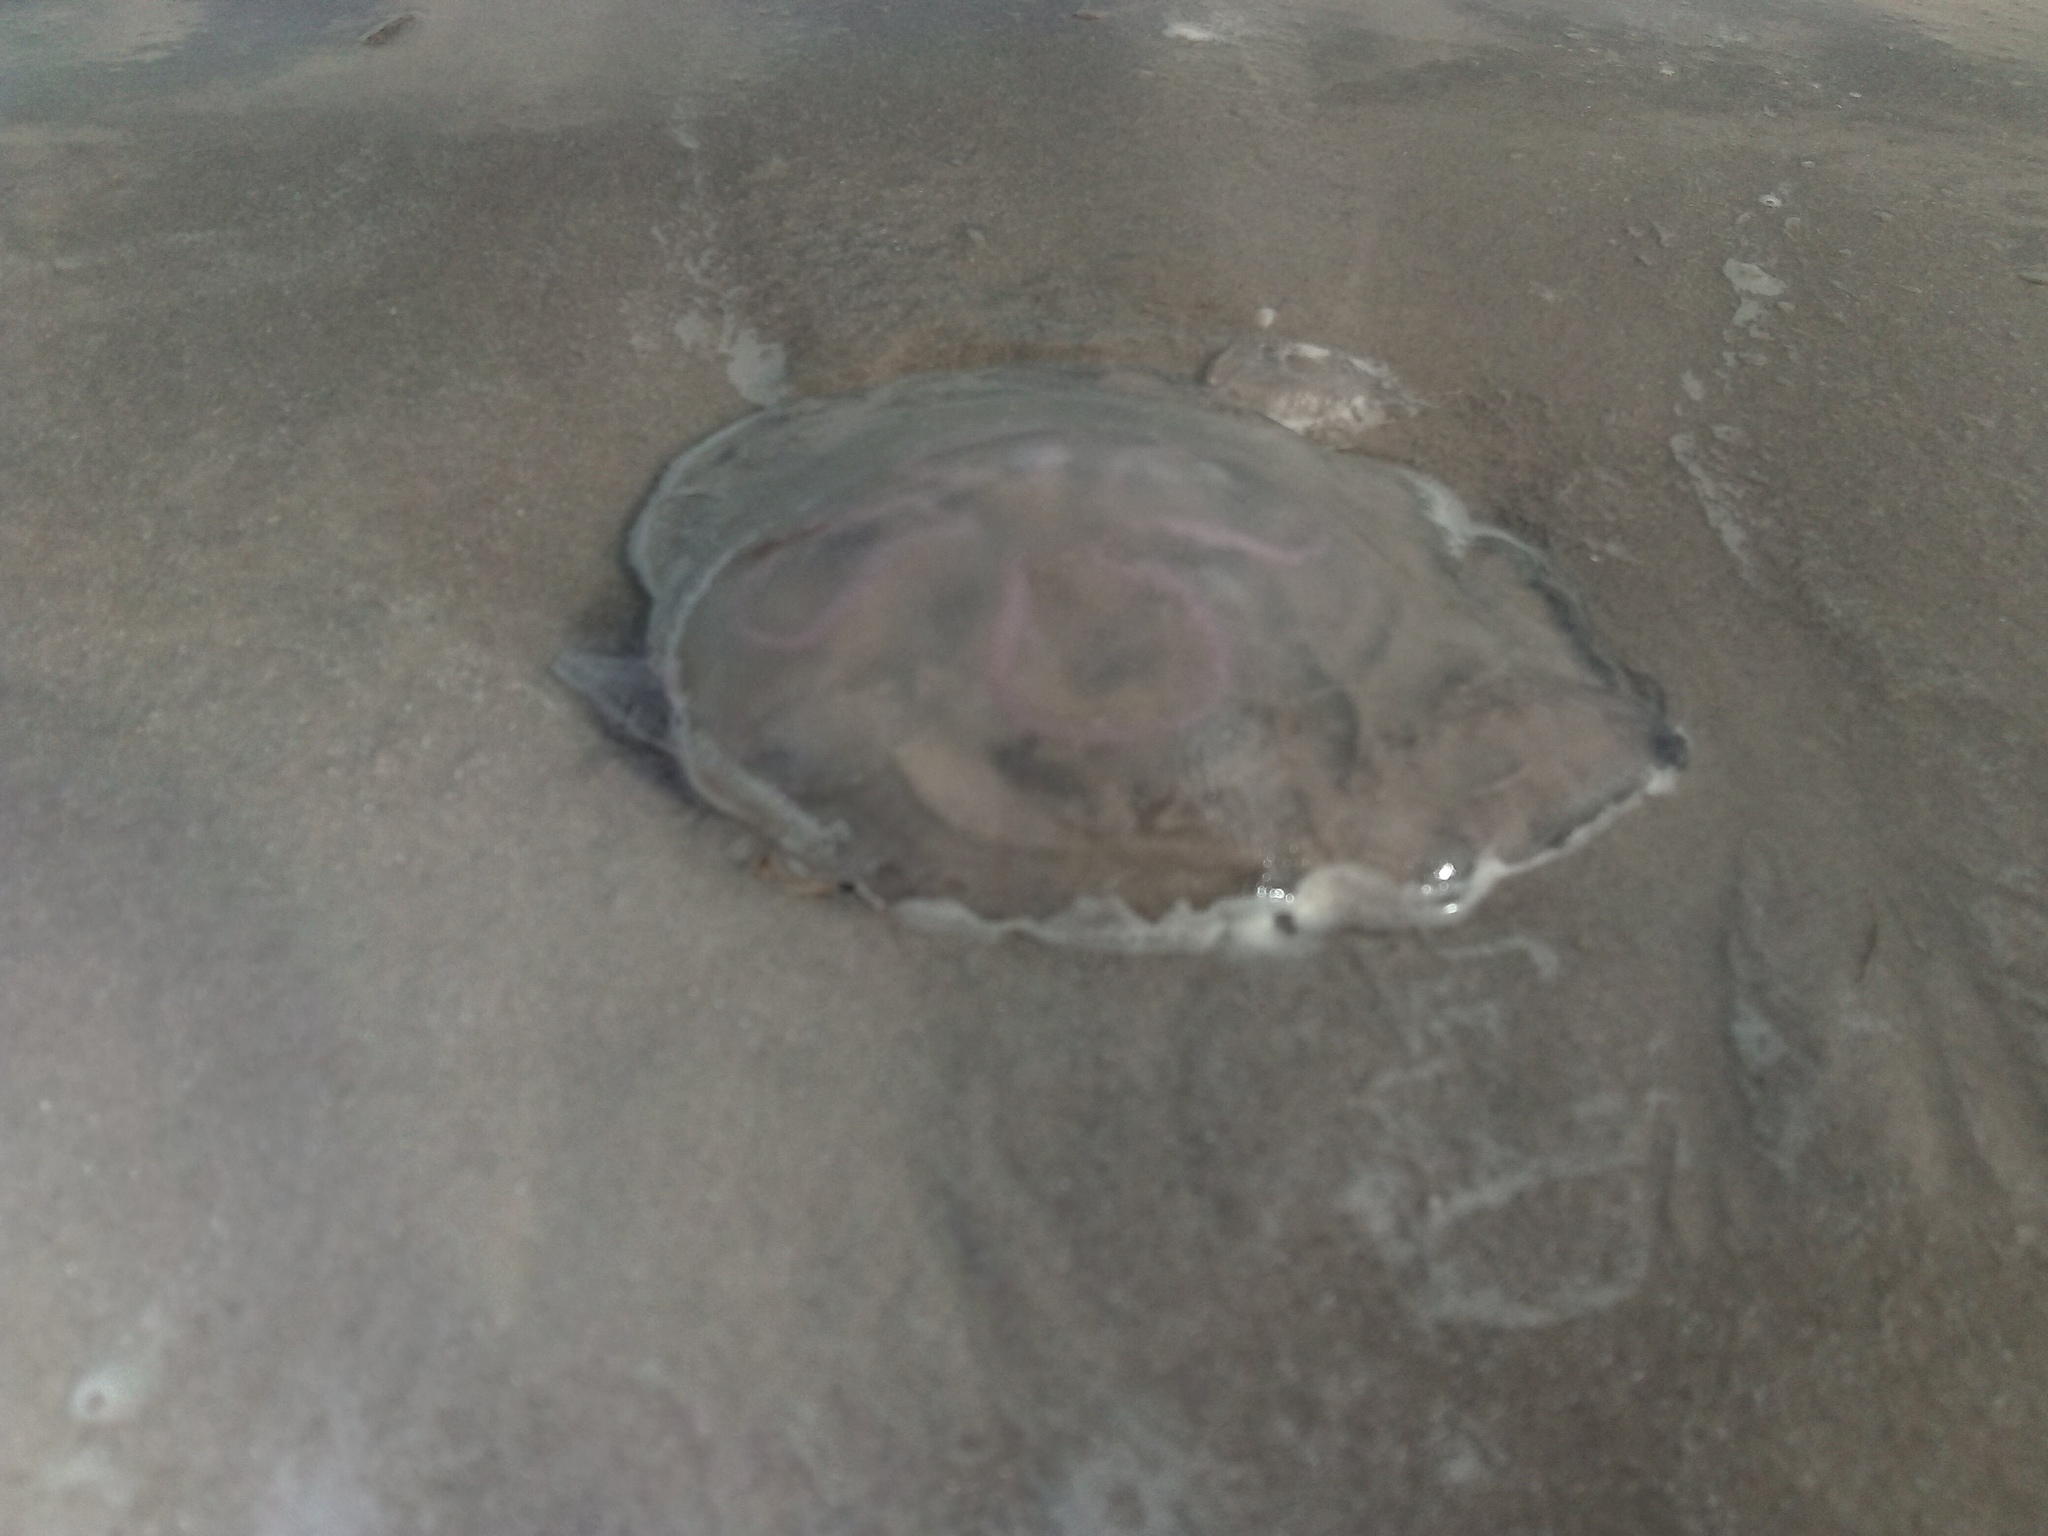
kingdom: Animalia
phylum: Cnidaria
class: Scyphozoa
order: Semaeostomeae
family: Ulmaridae
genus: Aurelia
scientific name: Aurelia
